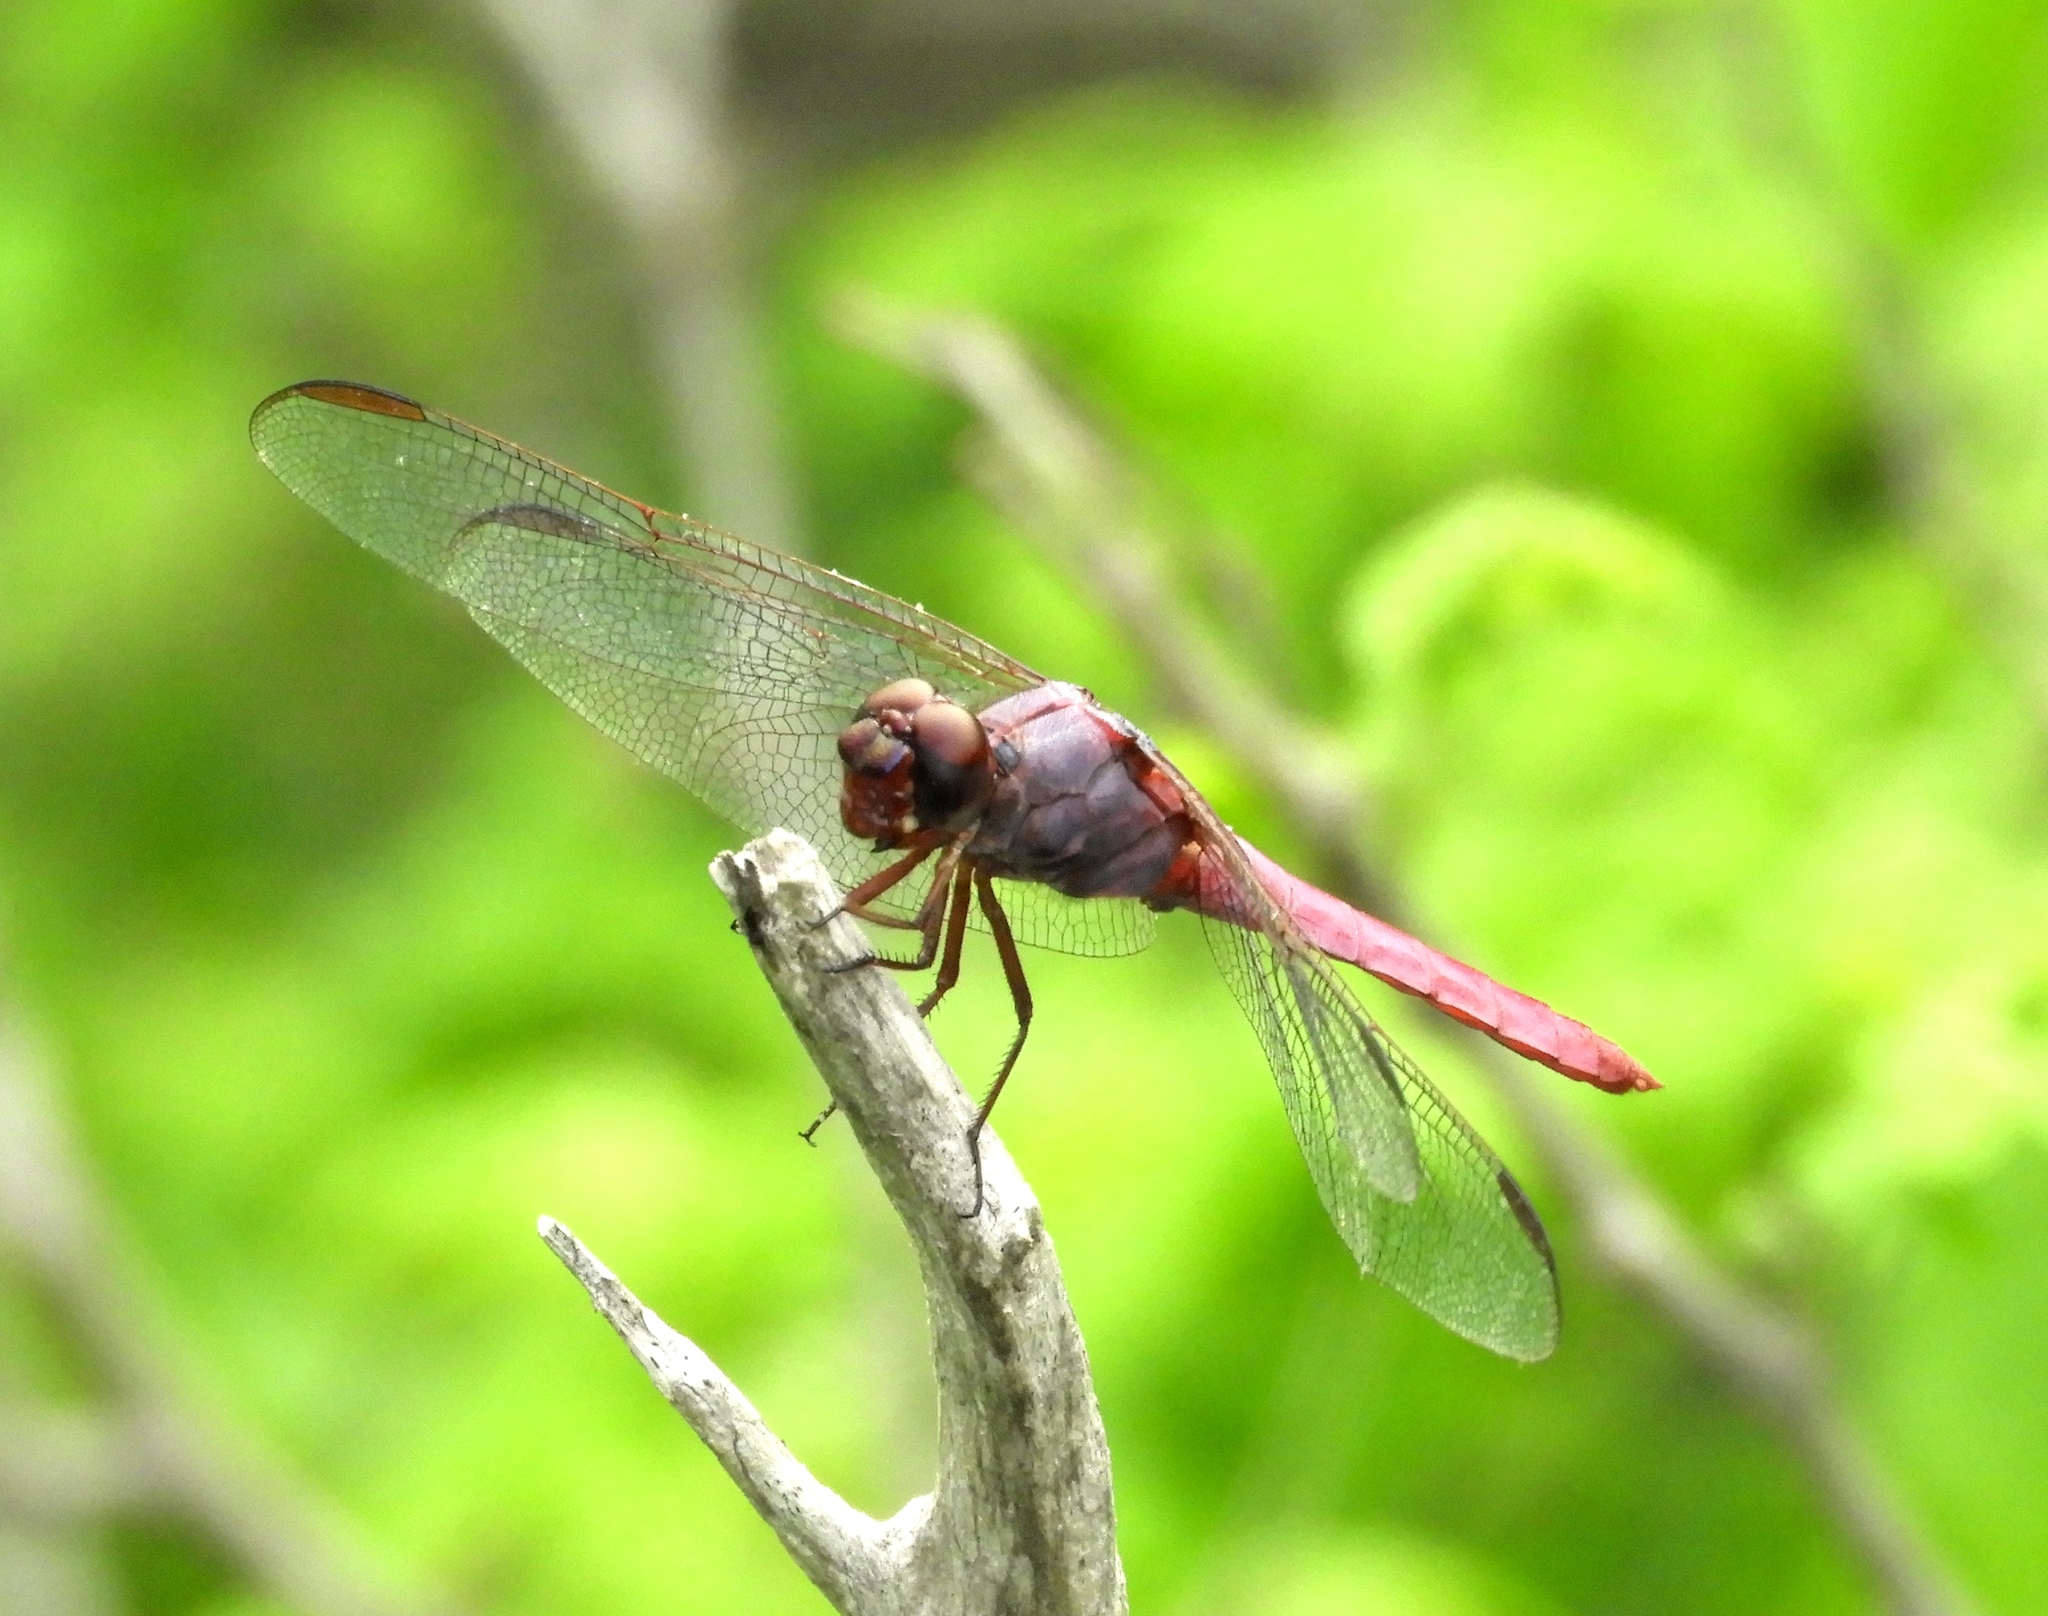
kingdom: Animalia
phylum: Arthropoda
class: Insecta
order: Odonata
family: Libellulidae
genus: Orthemis
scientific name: Orthemis ferruginea
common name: Roseate skimmer
